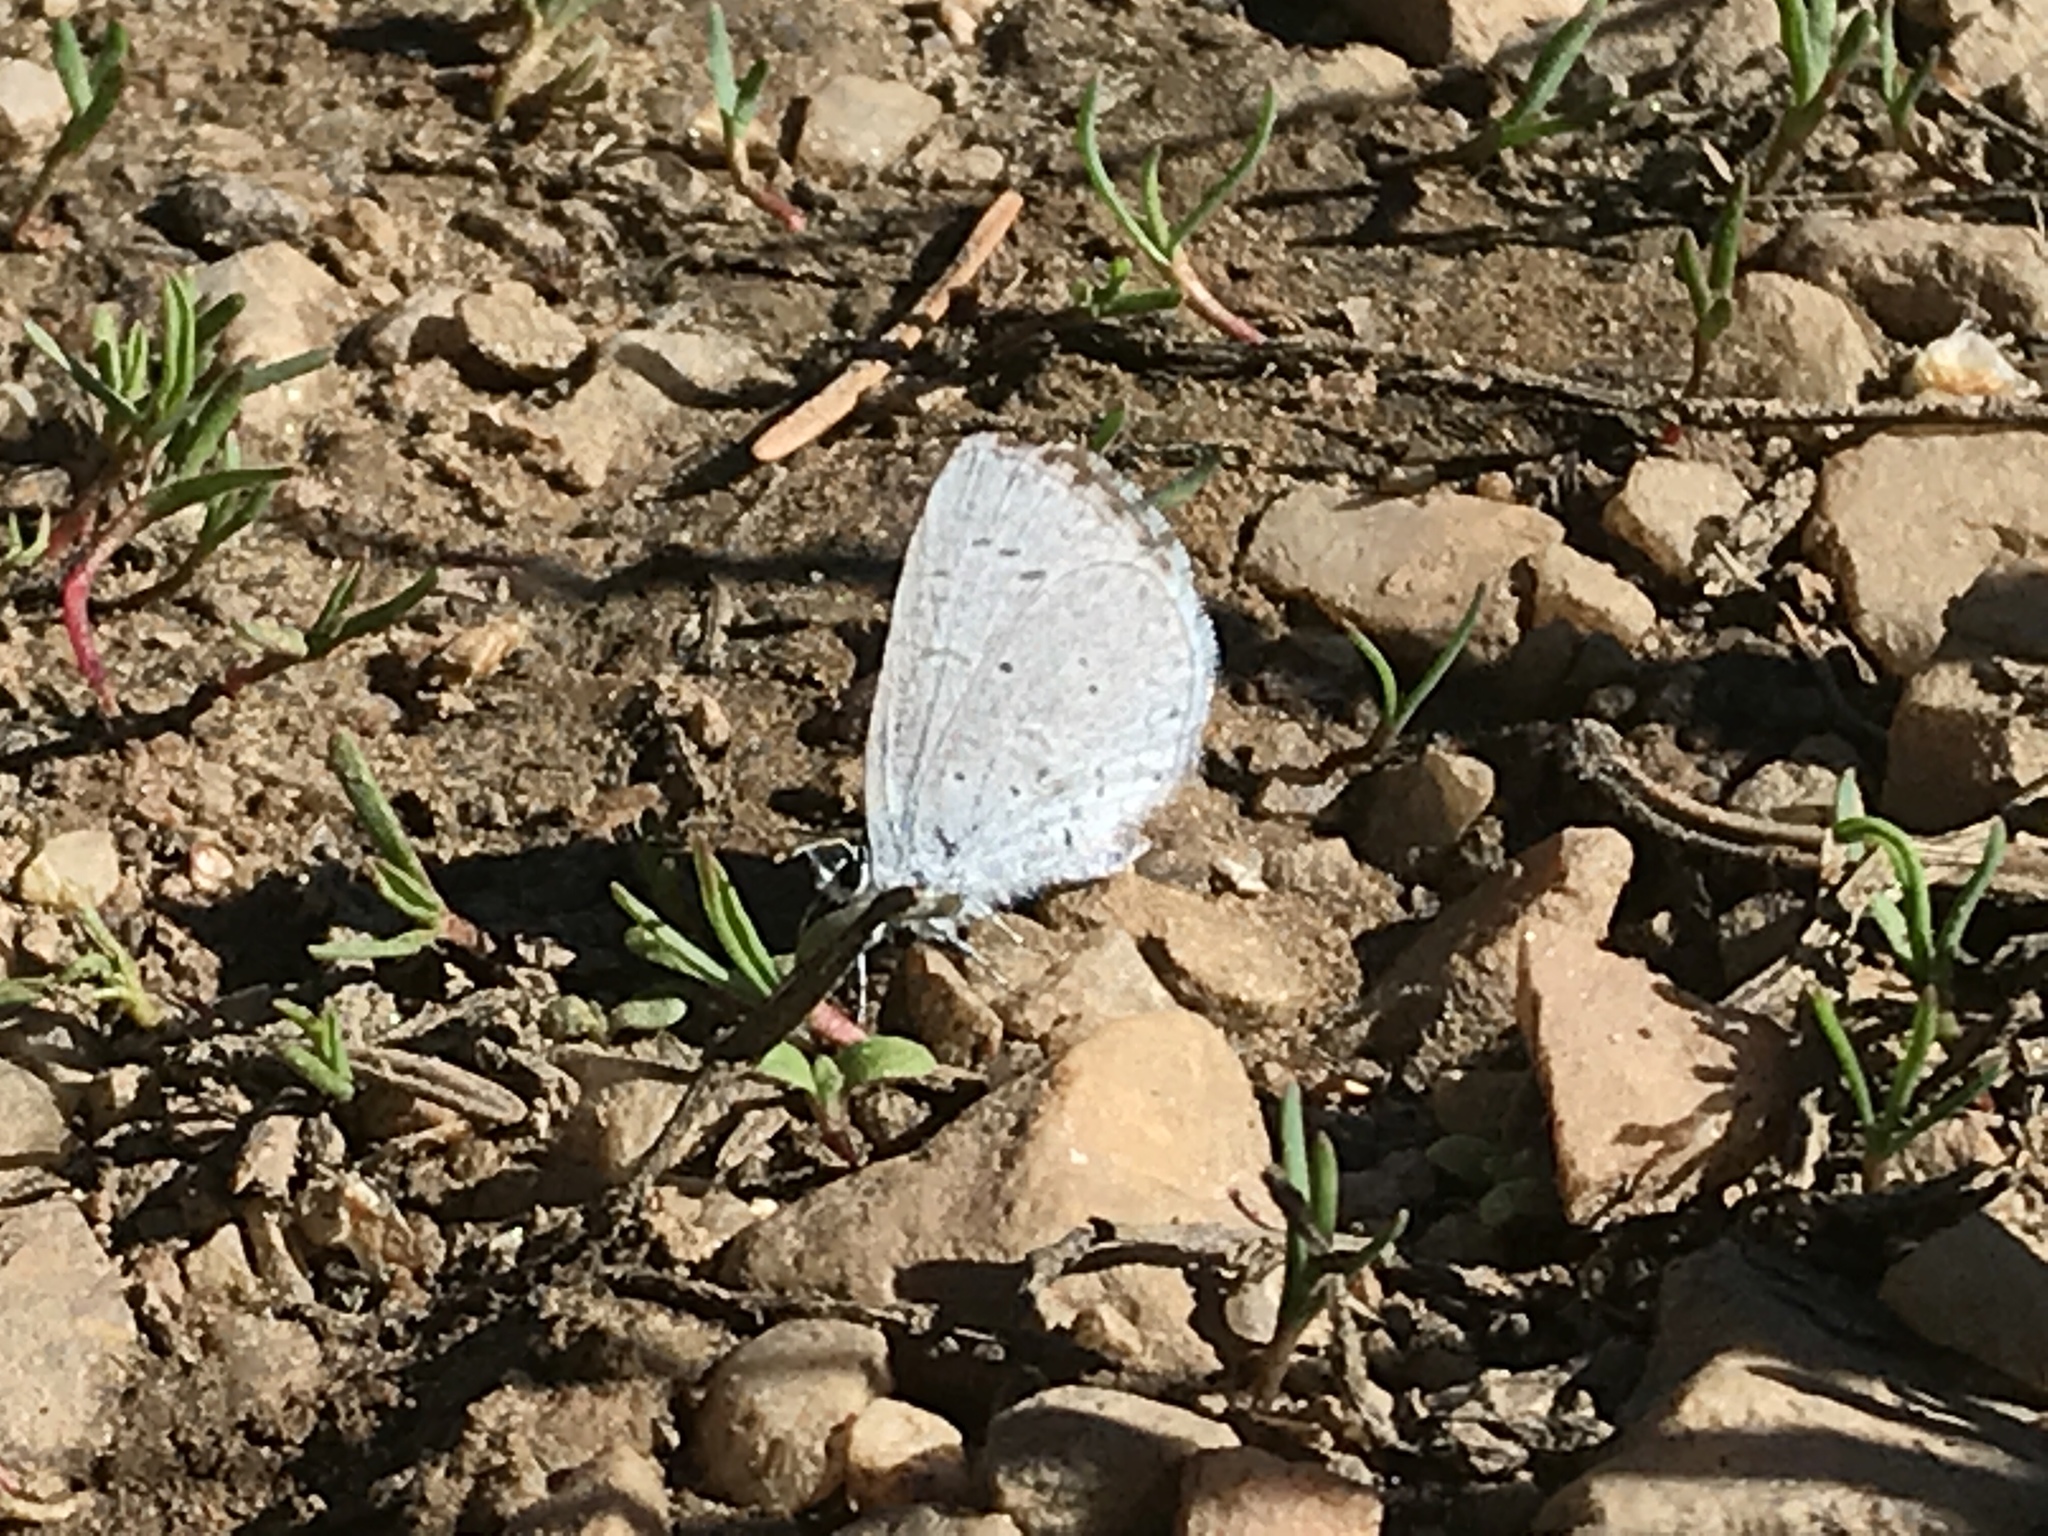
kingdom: Animalia
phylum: Arthropoda
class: Insecta
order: Lepidoptera
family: Lycaenidae
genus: Celastrina
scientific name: Celastrina ladon
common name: Spring azure
